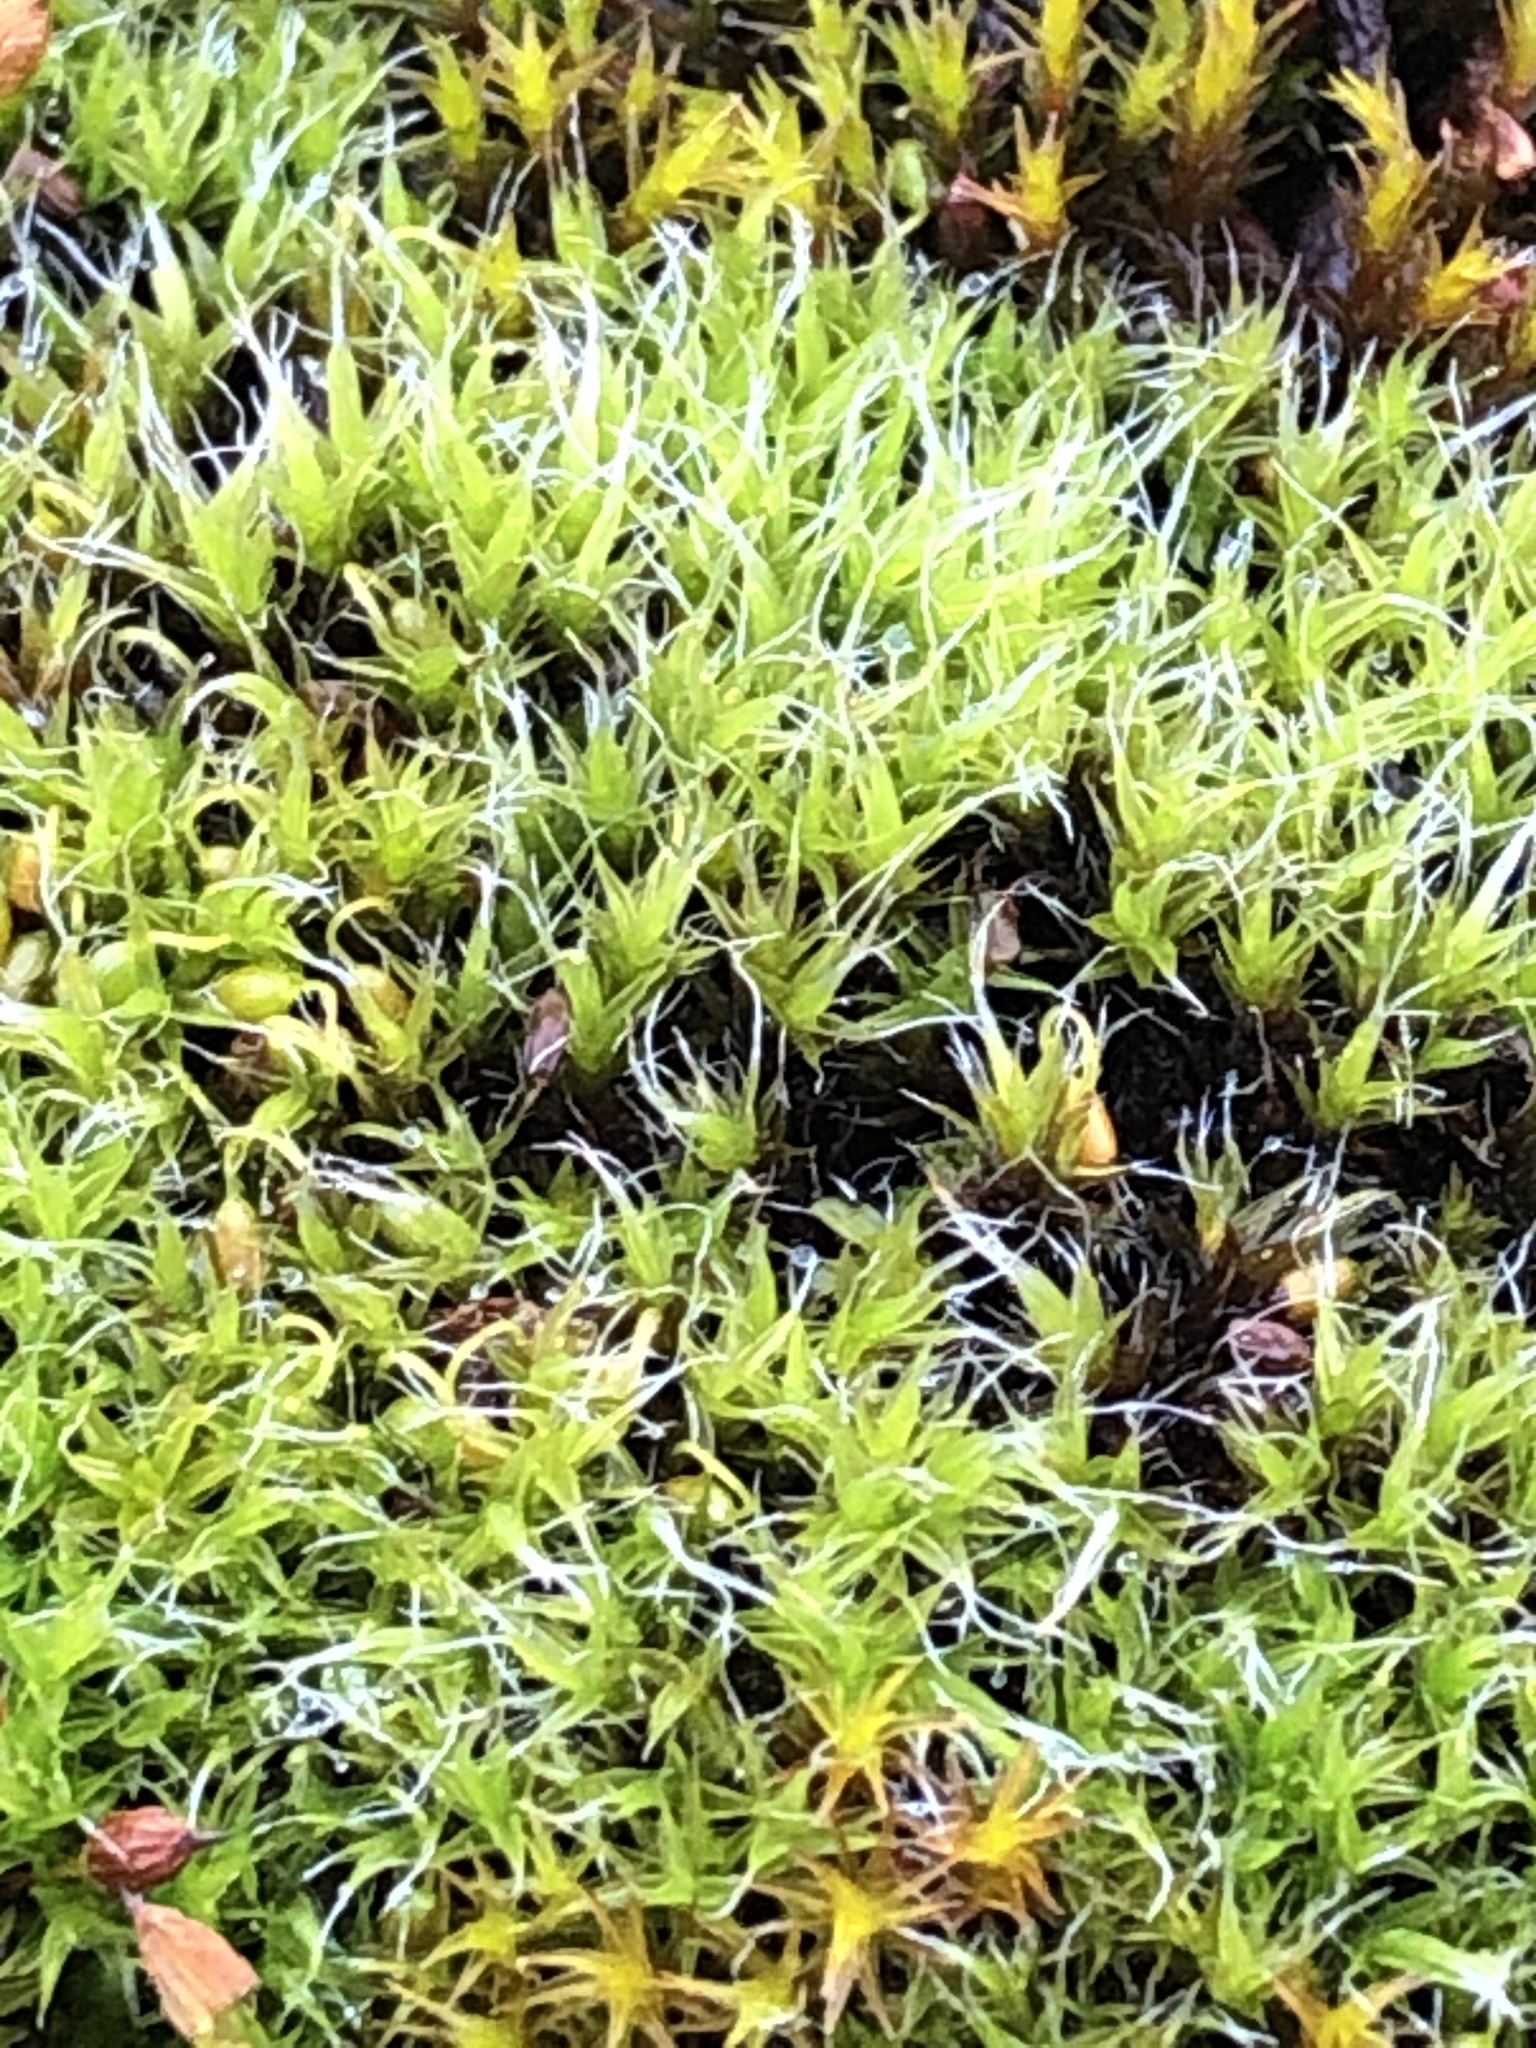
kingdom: Plantae
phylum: Bryophyta
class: Bryopsida
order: Grimmiales
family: Grimmiaceae
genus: Grimmia
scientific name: Grimmia pulvinata
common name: Grey-cushioned grimmia
